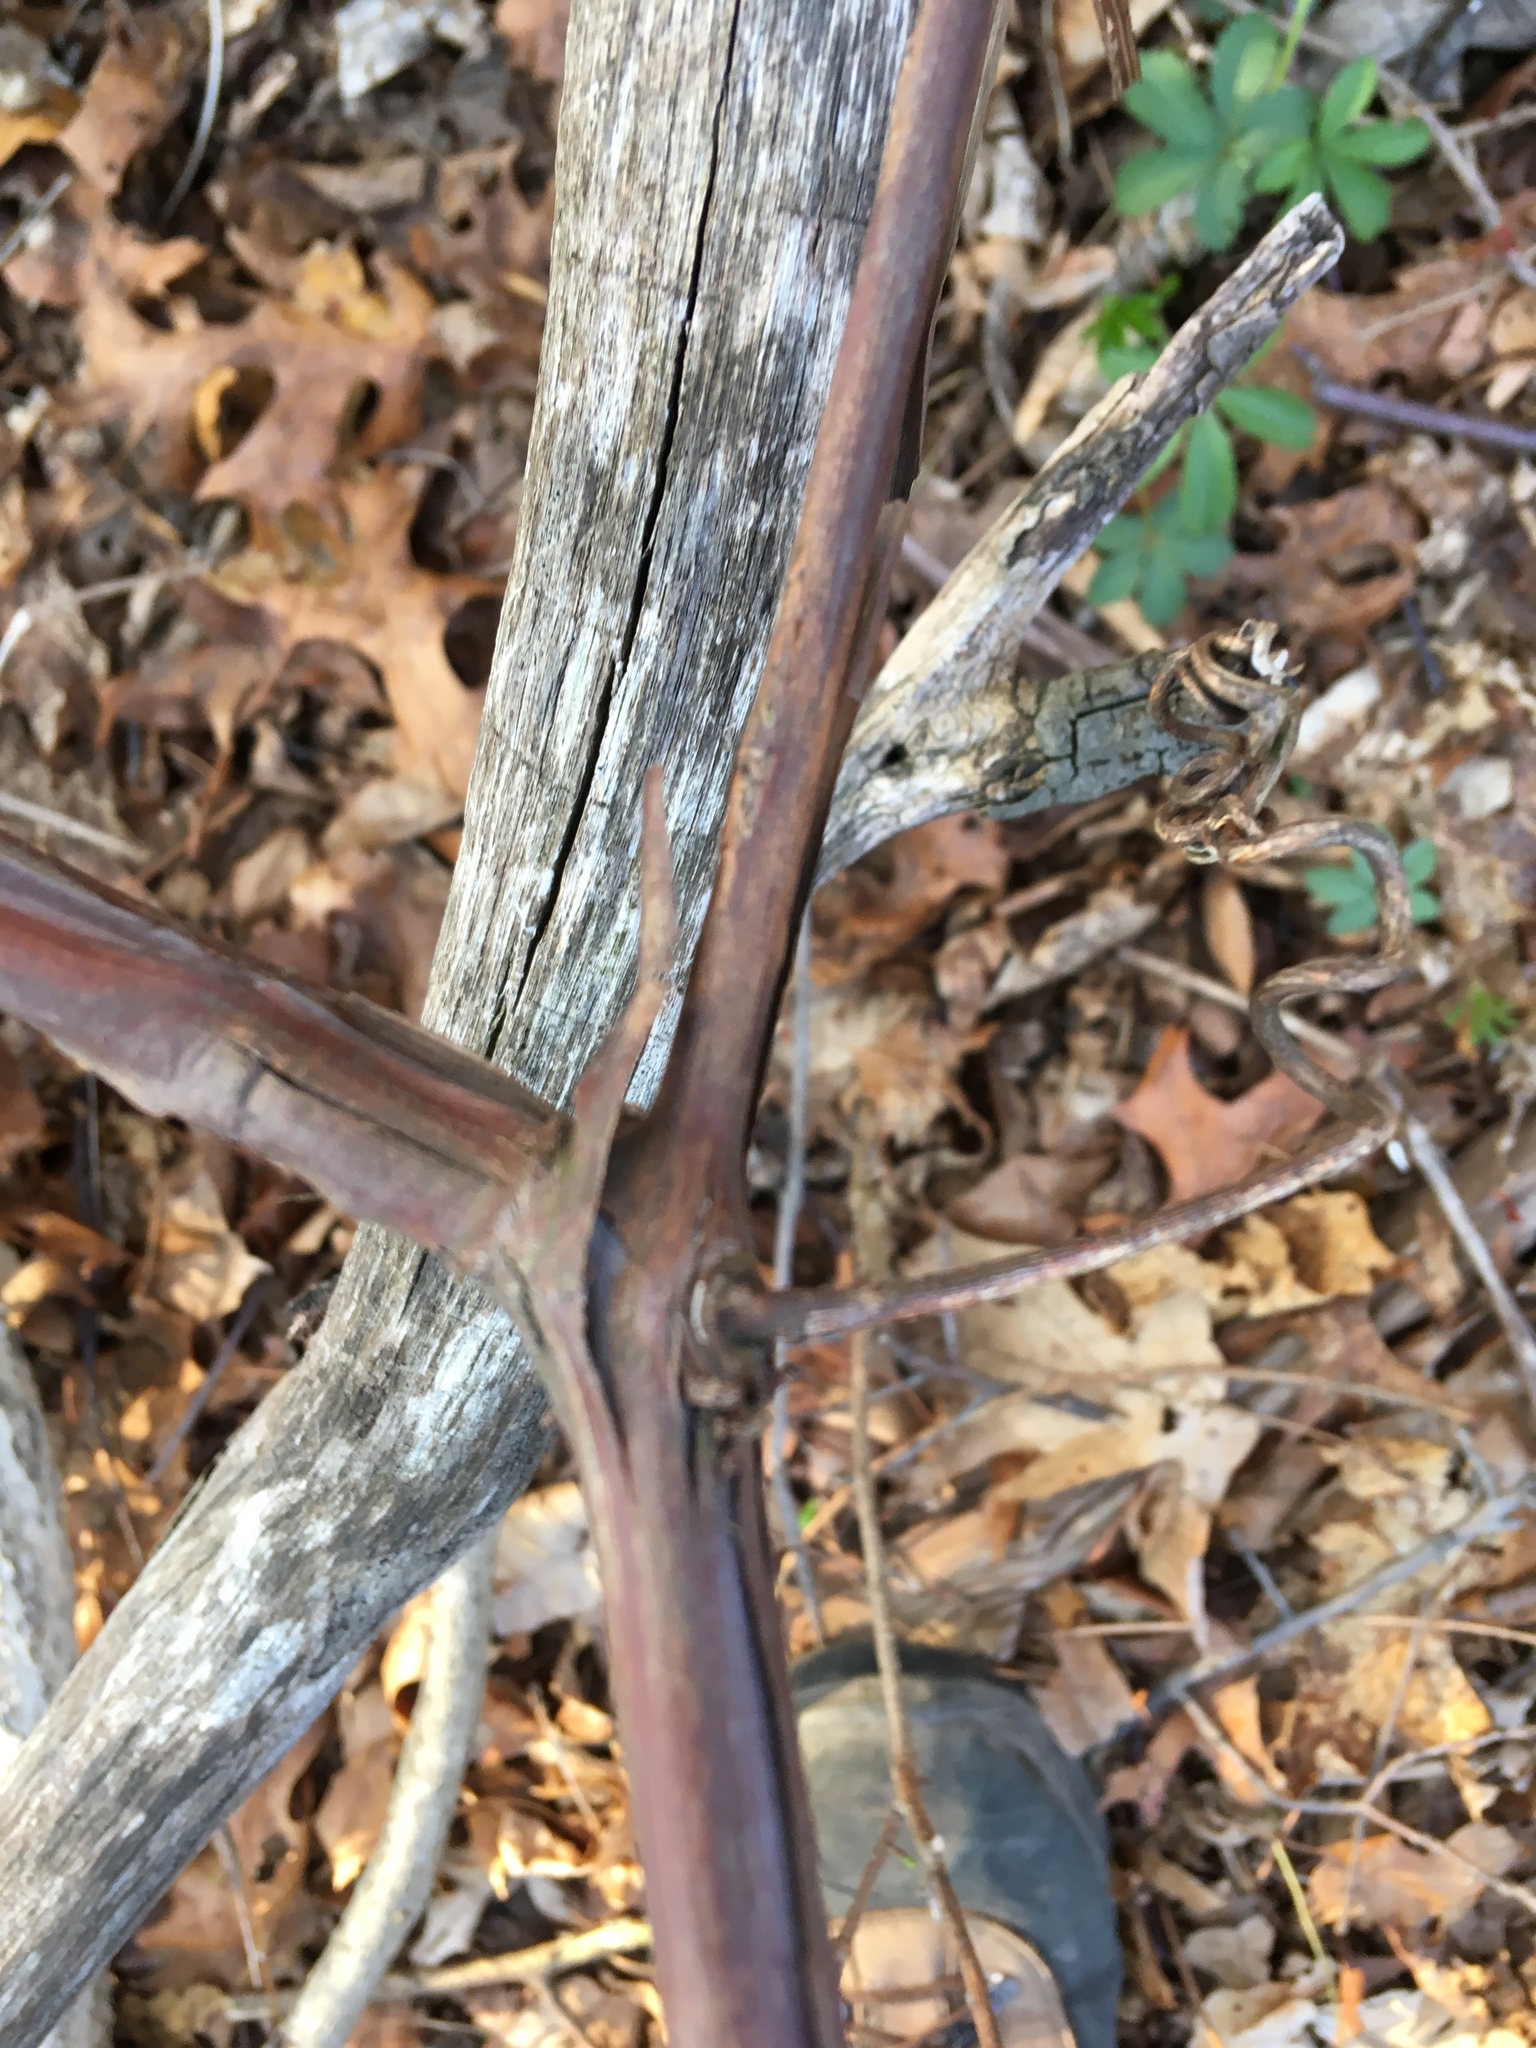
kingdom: Plantae
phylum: Tracheophyta
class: Magnoliopsida
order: Vitales
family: Vitaceae
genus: Vitis
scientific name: Vitis
